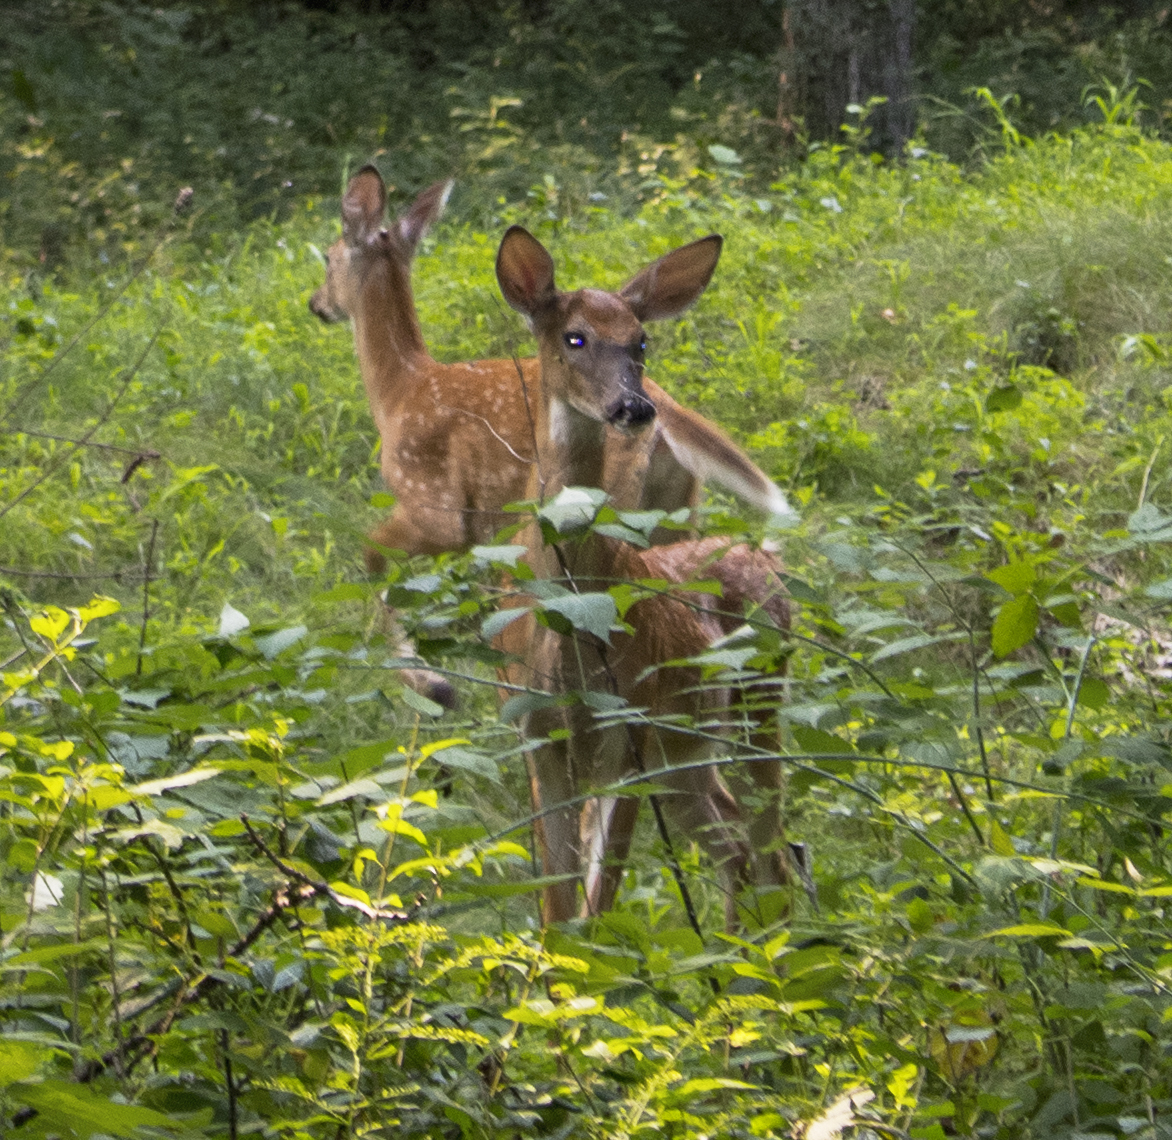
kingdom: Animalia
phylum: Chordata
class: Mammalia
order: Artiodactyla
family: Cervidae
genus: Odocoileus
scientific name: Odocoileus virginianus
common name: White-tailed deer
